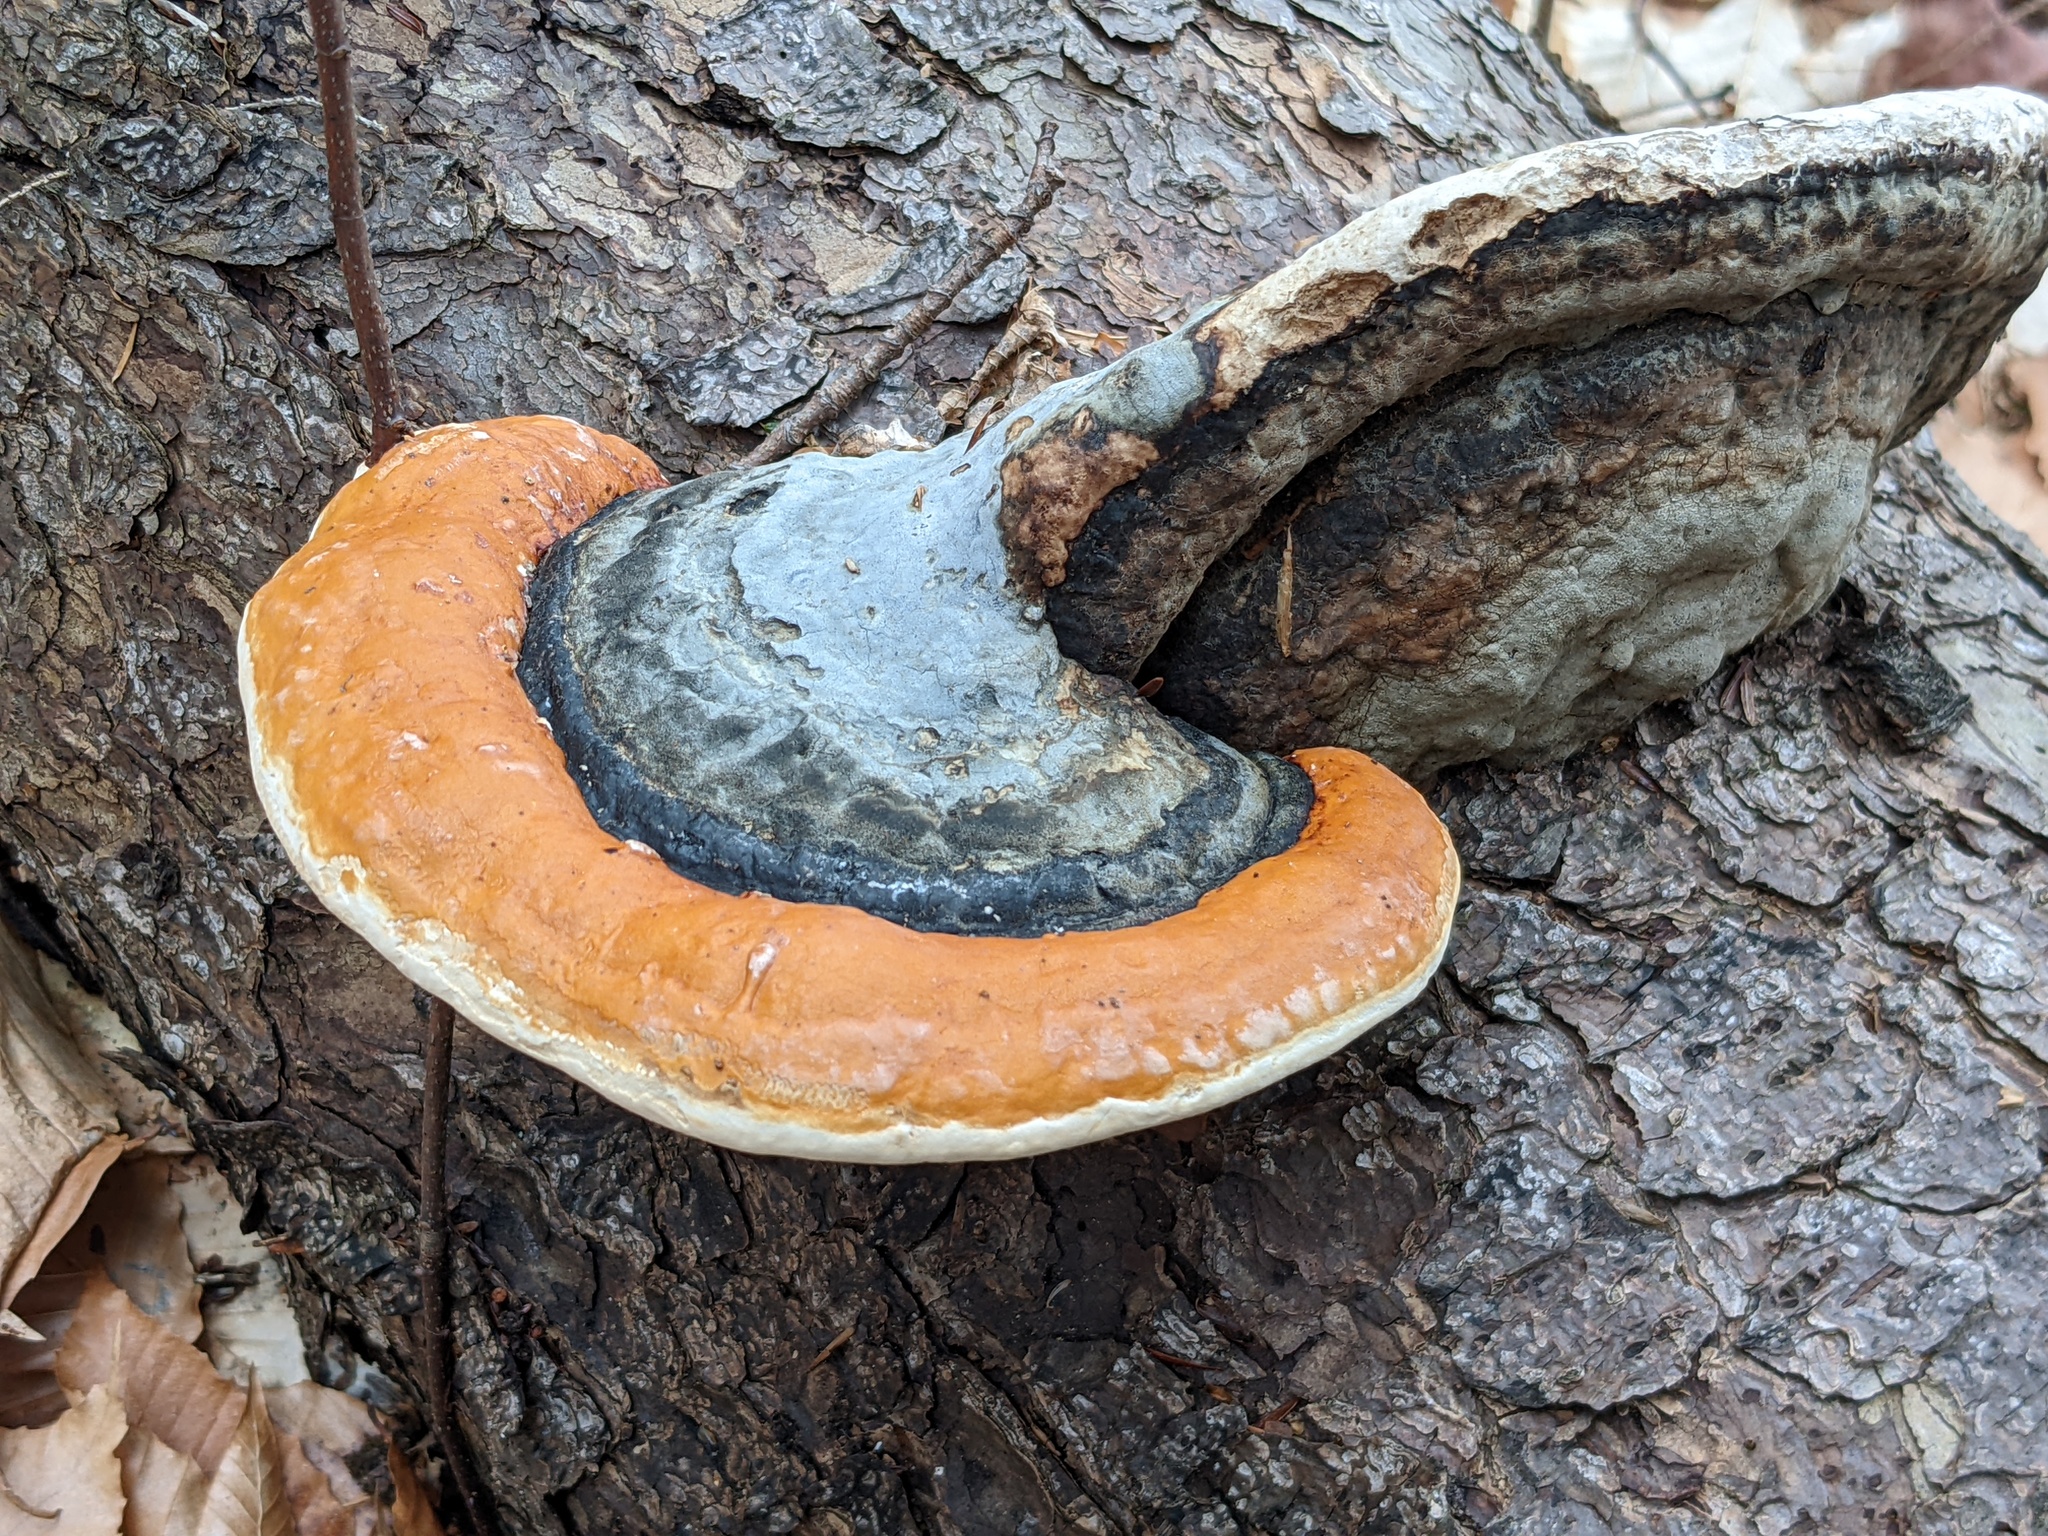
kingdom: Fungi
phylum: Basidiomycota
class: Agaricomycetes
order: Polyporales
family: Fomitopsidaceae
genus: Fomitopsis
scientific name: Fomitopsis mounceae
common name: Northern red belt
